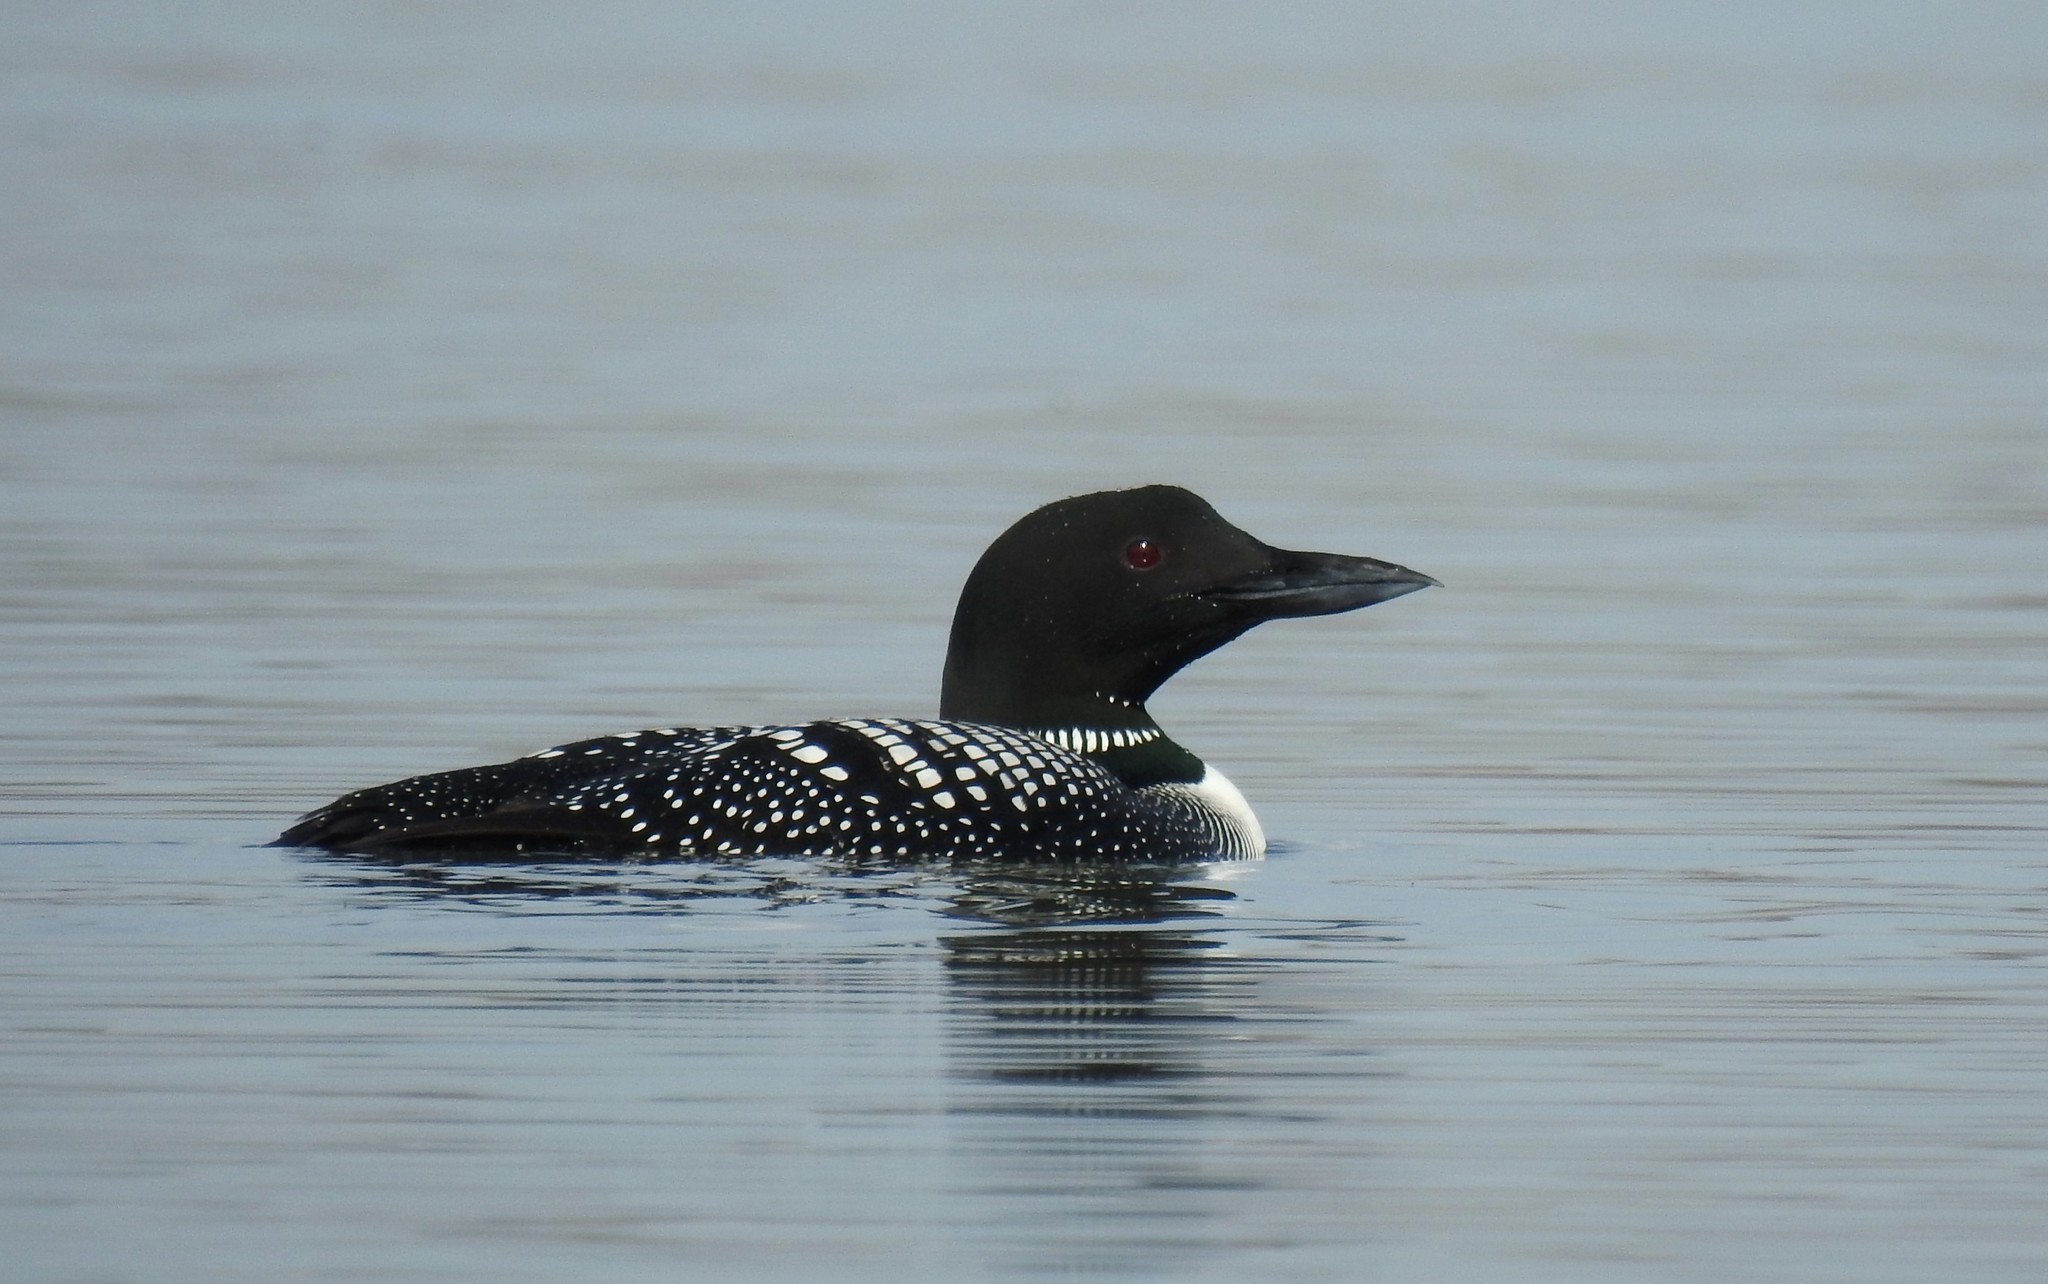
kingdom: Animalia
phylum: Chordata
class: Aves
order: Gaviiformes
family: Gaviidae
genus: Gavia
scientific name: Gavia immer
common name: Common loon
